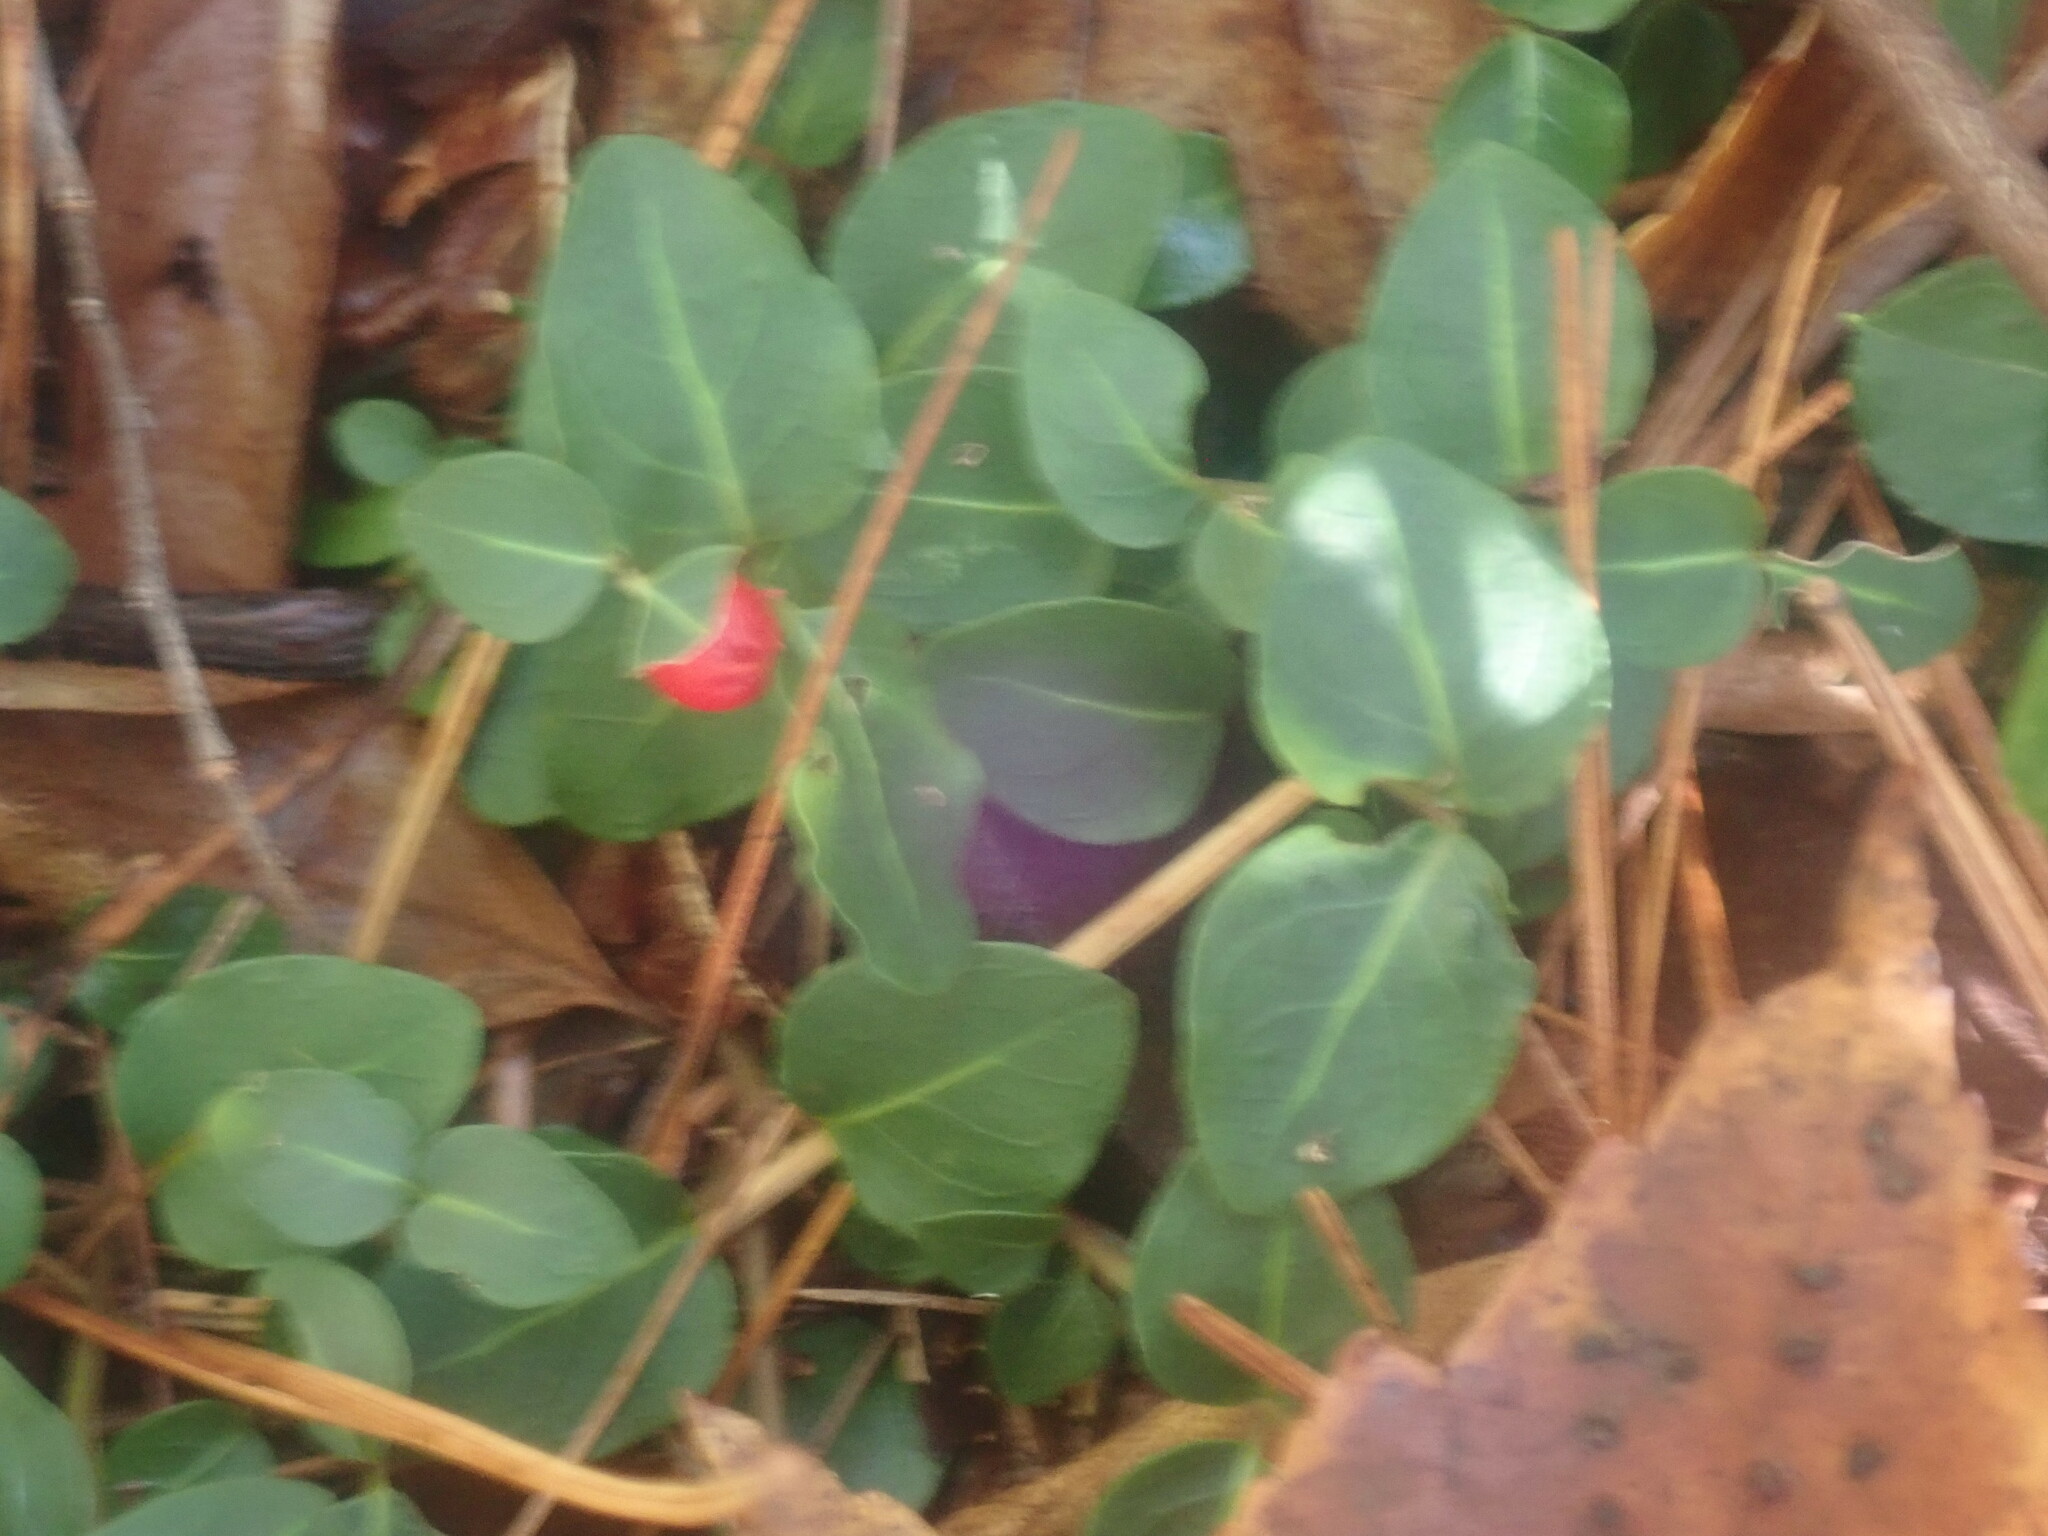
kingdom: Plantae
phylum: Tracheophyta
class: Magnoliopsida
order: Gentianales
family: Rubiaceae
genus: Mitchella
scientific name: Mitchella repens
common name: Partridge-berry
